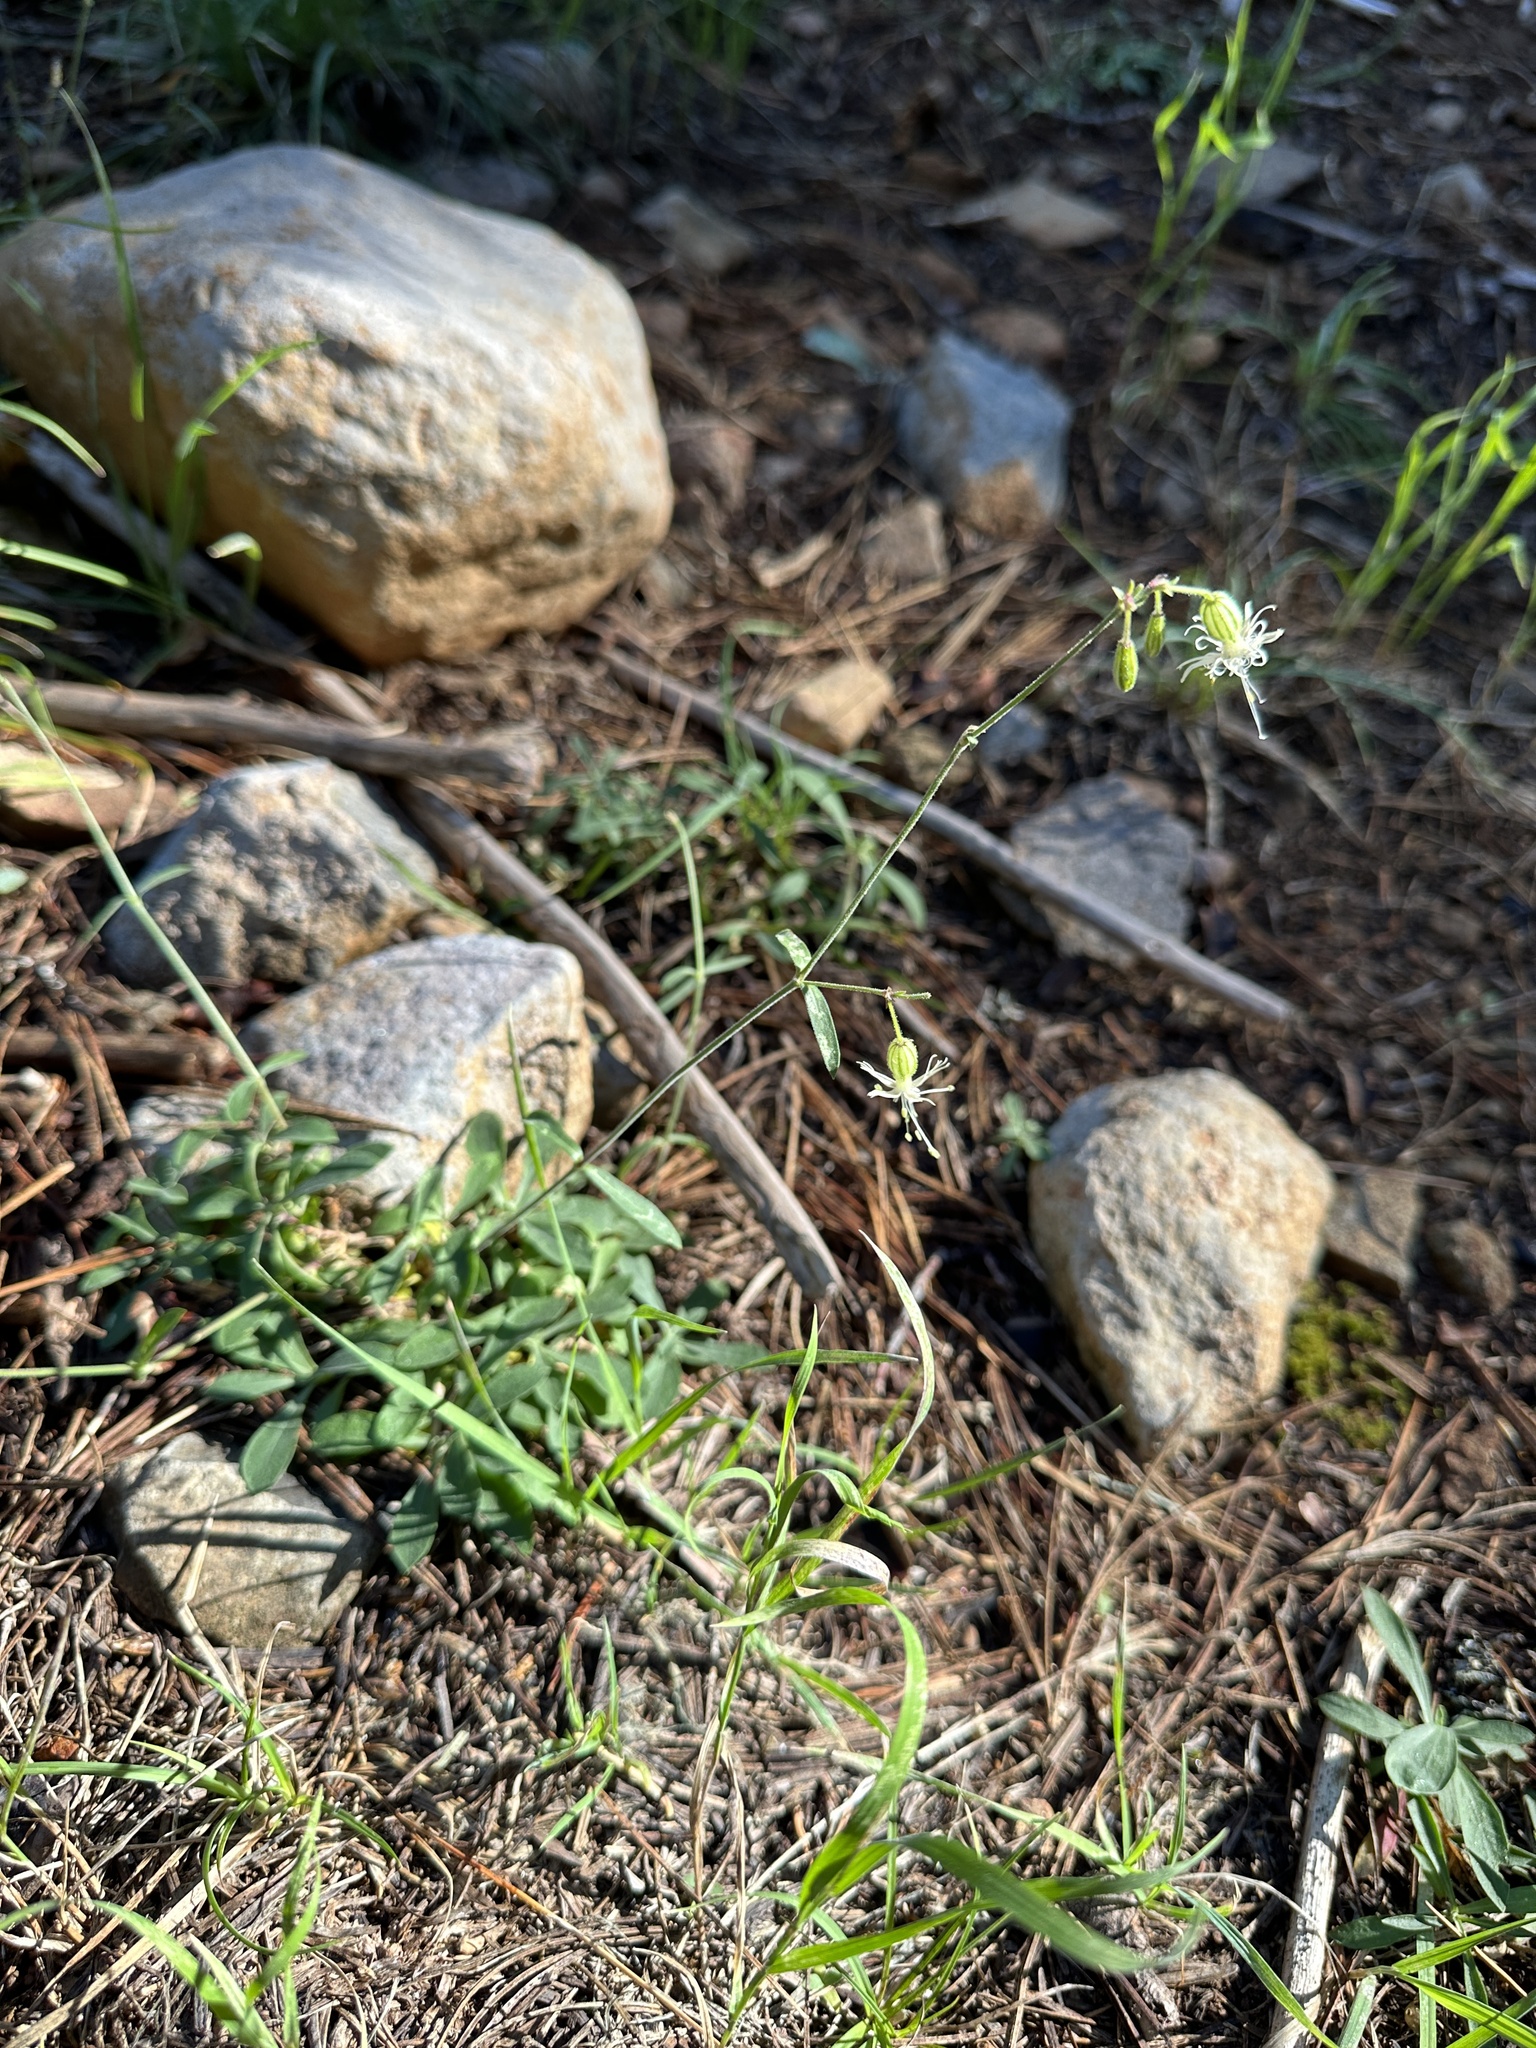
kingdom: Plantae
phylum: Tracheophyta
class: Magnoliopsida
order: Caryophyllales
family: Caryophyllaceae
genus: Silene
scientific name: Silene lemmonii
